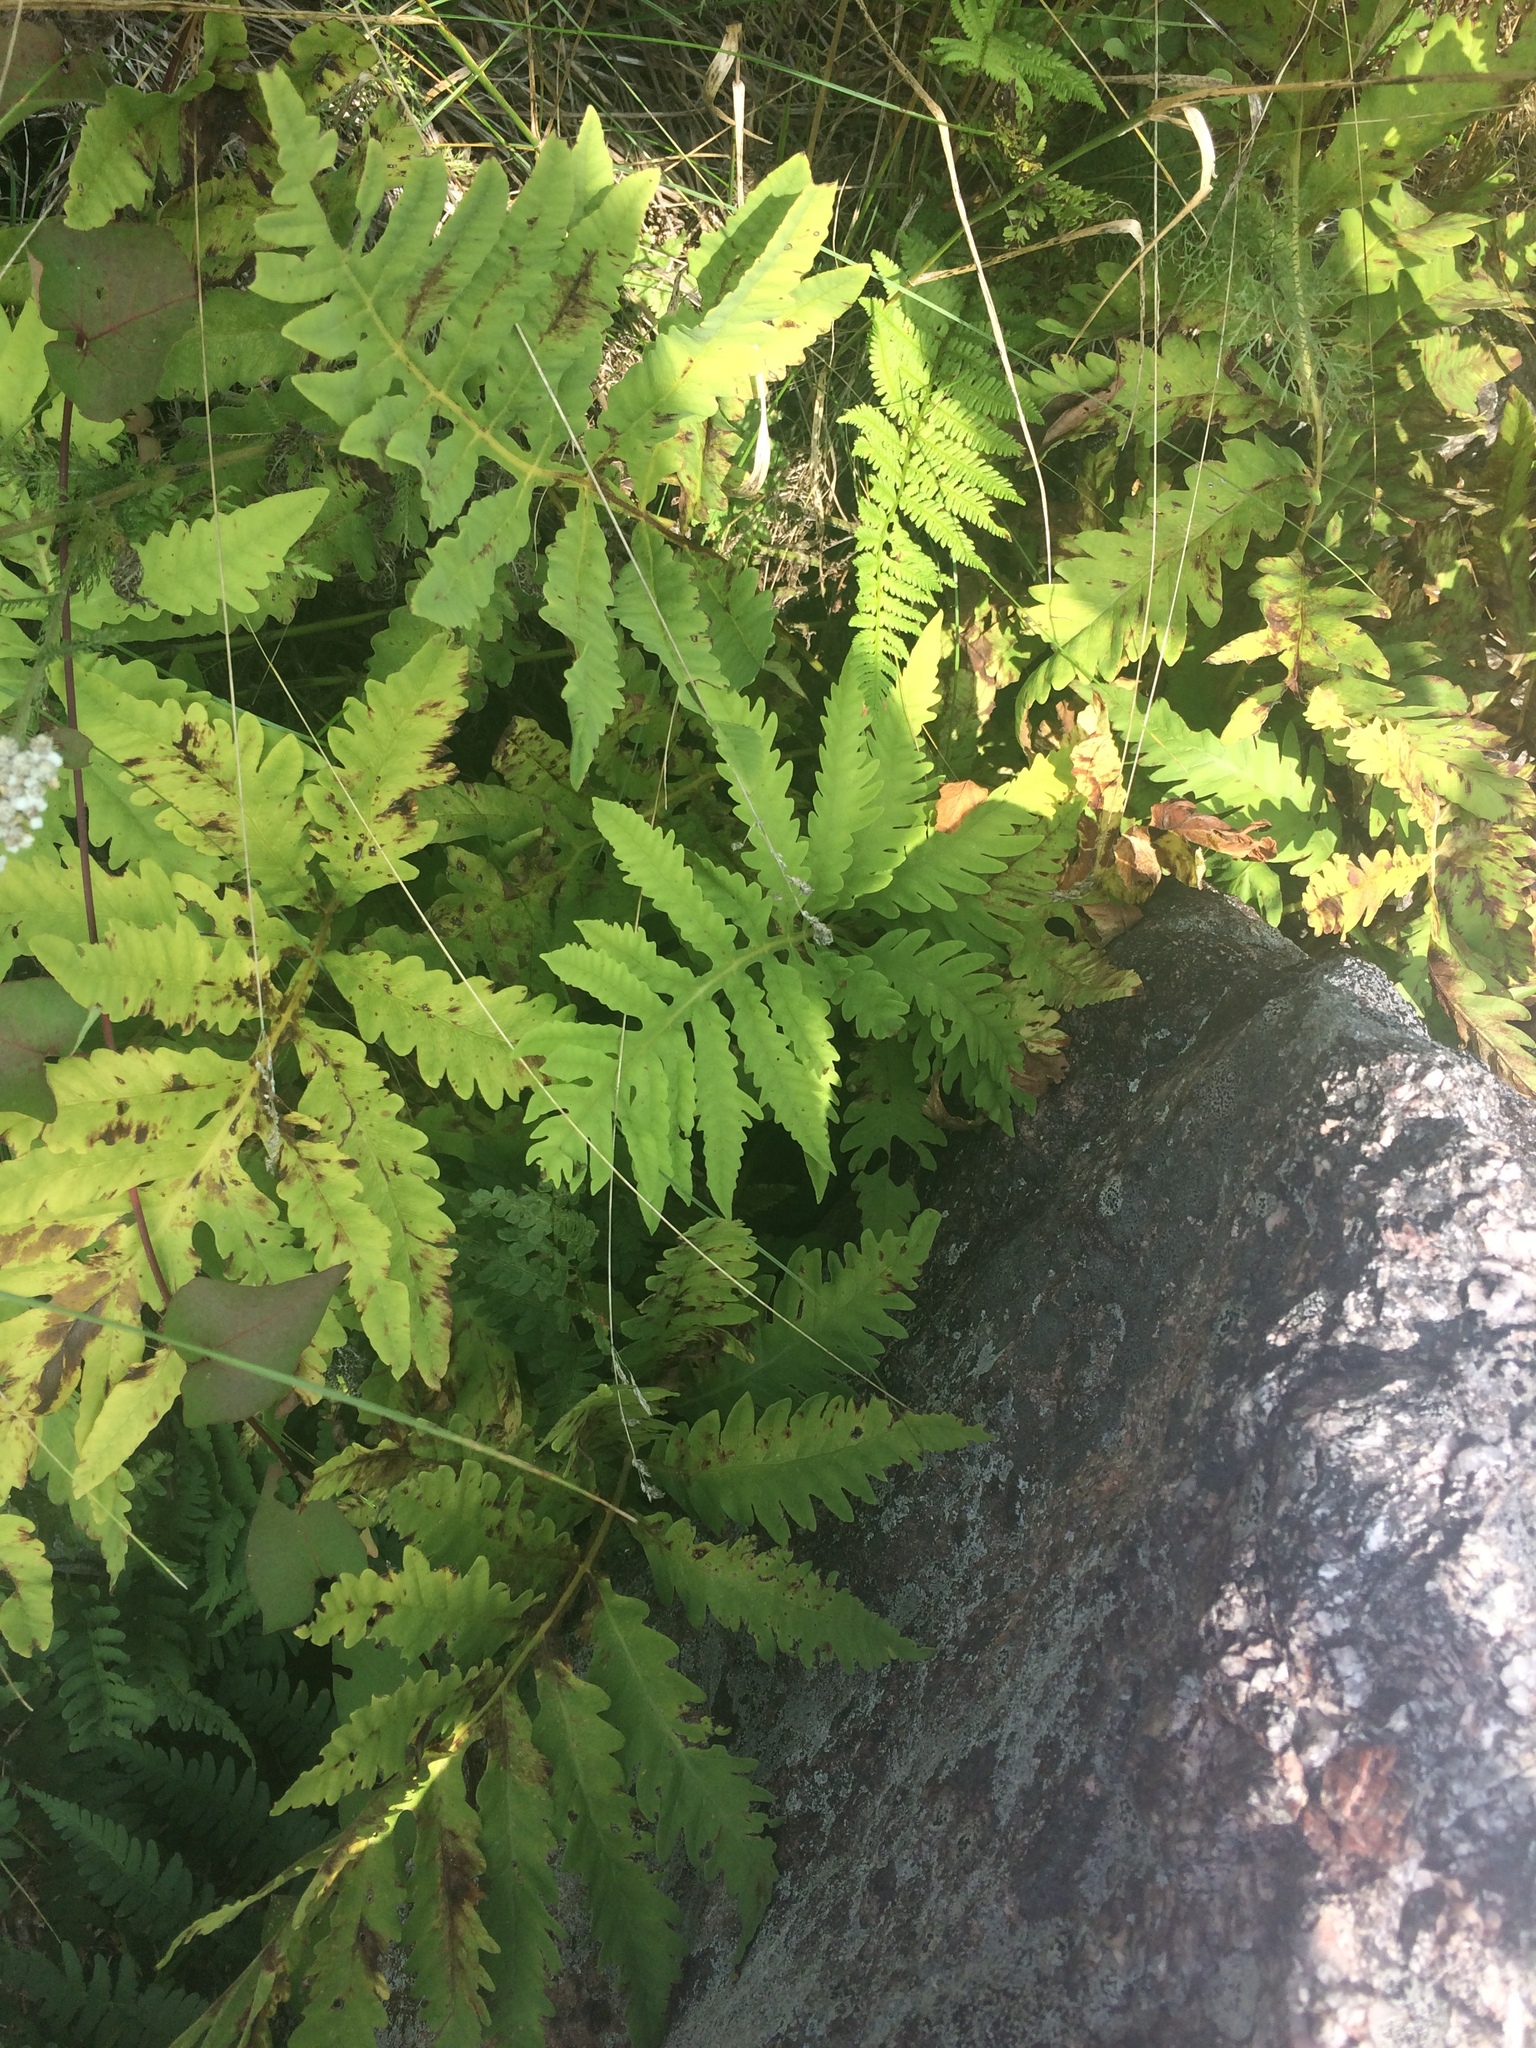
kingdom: Plantae
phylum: Tracheophyta
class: Polypodiopsida
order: Polypodiales
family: Onocleaceae
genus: Onoclea
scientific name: Onoclea sensibilis
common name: Sensitive fern
